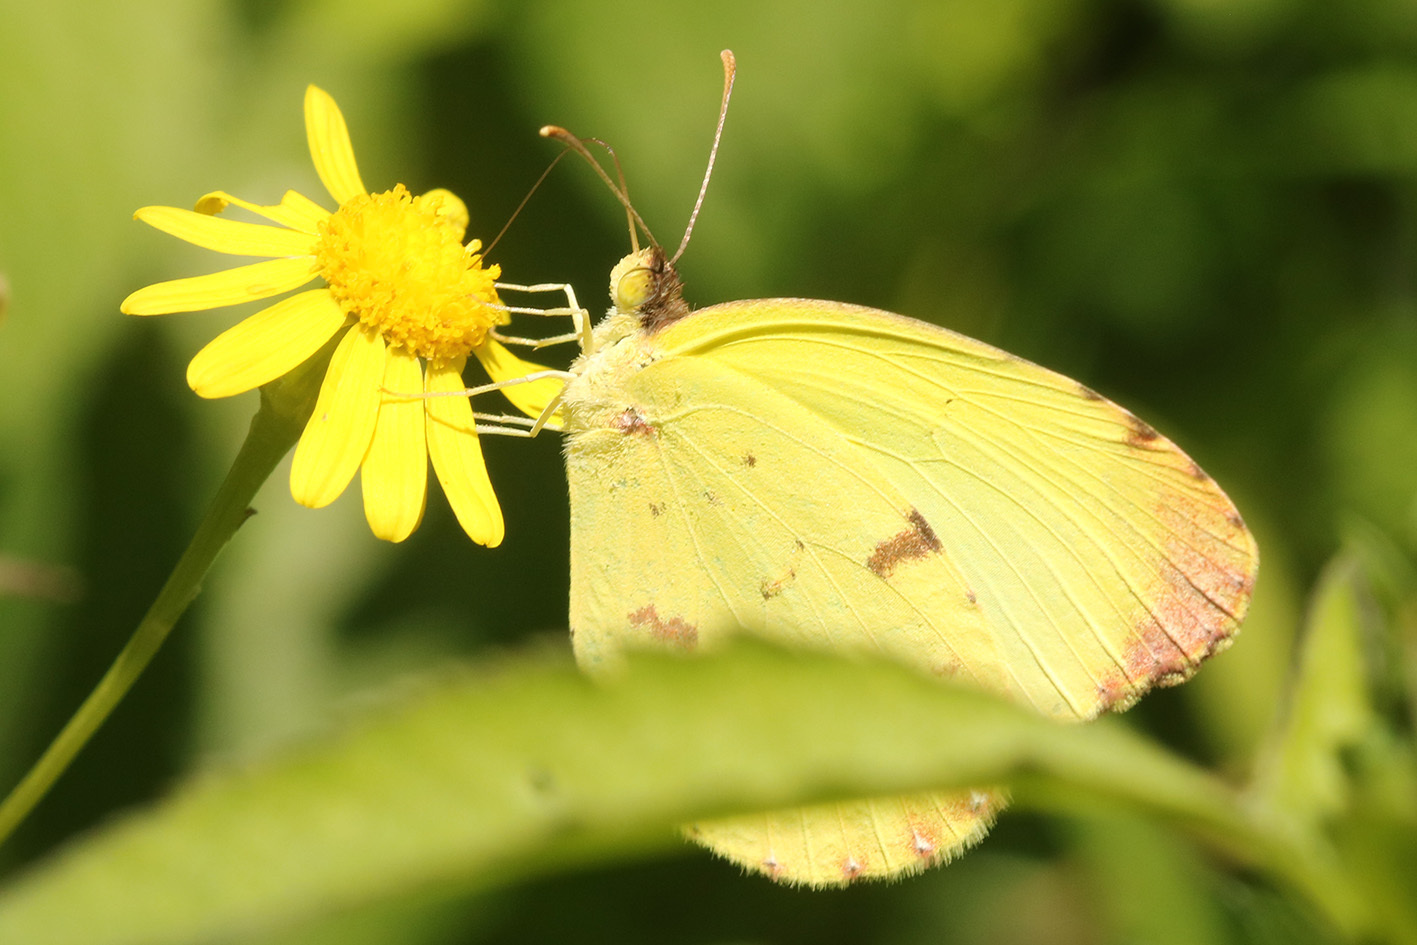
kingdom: Animalia
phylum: Arthropoda
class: Insecta
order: Lepidoptera
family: Pieridae
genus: Teriocolias
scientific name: Teriocolias
